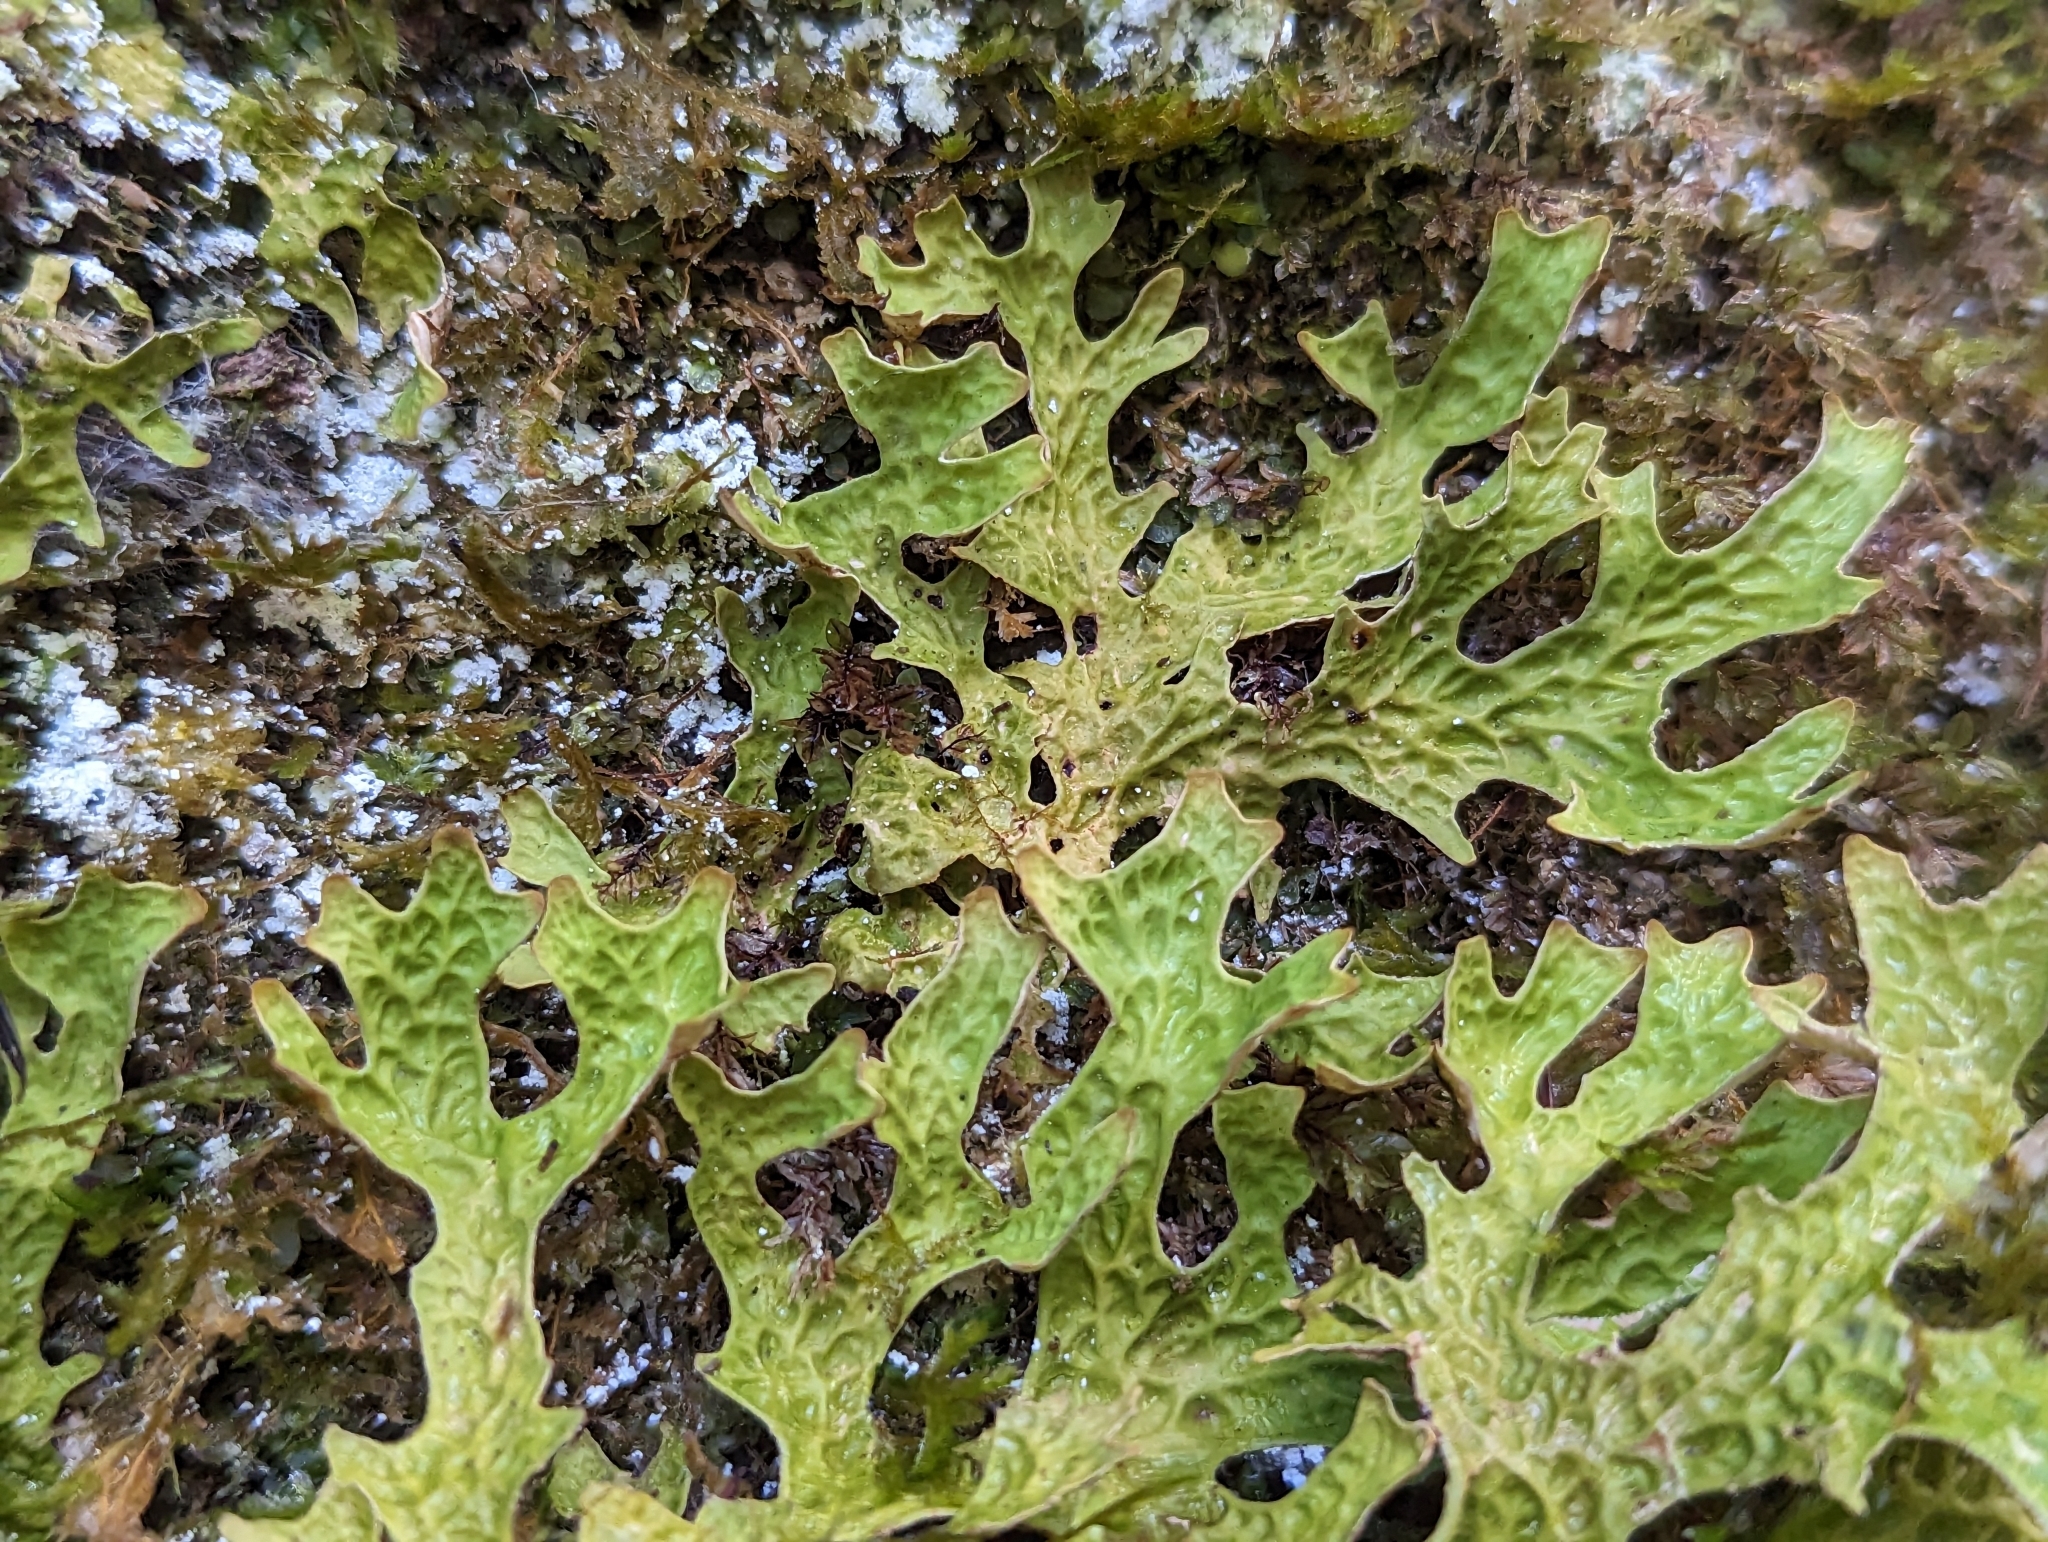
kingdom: Fungi
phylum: Ascomycota
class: Lecanoromycetes
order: Peltigerales
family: Lobariaceae
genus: Lobaria
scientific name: Lobaria pulmonaria
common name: Lungwort
